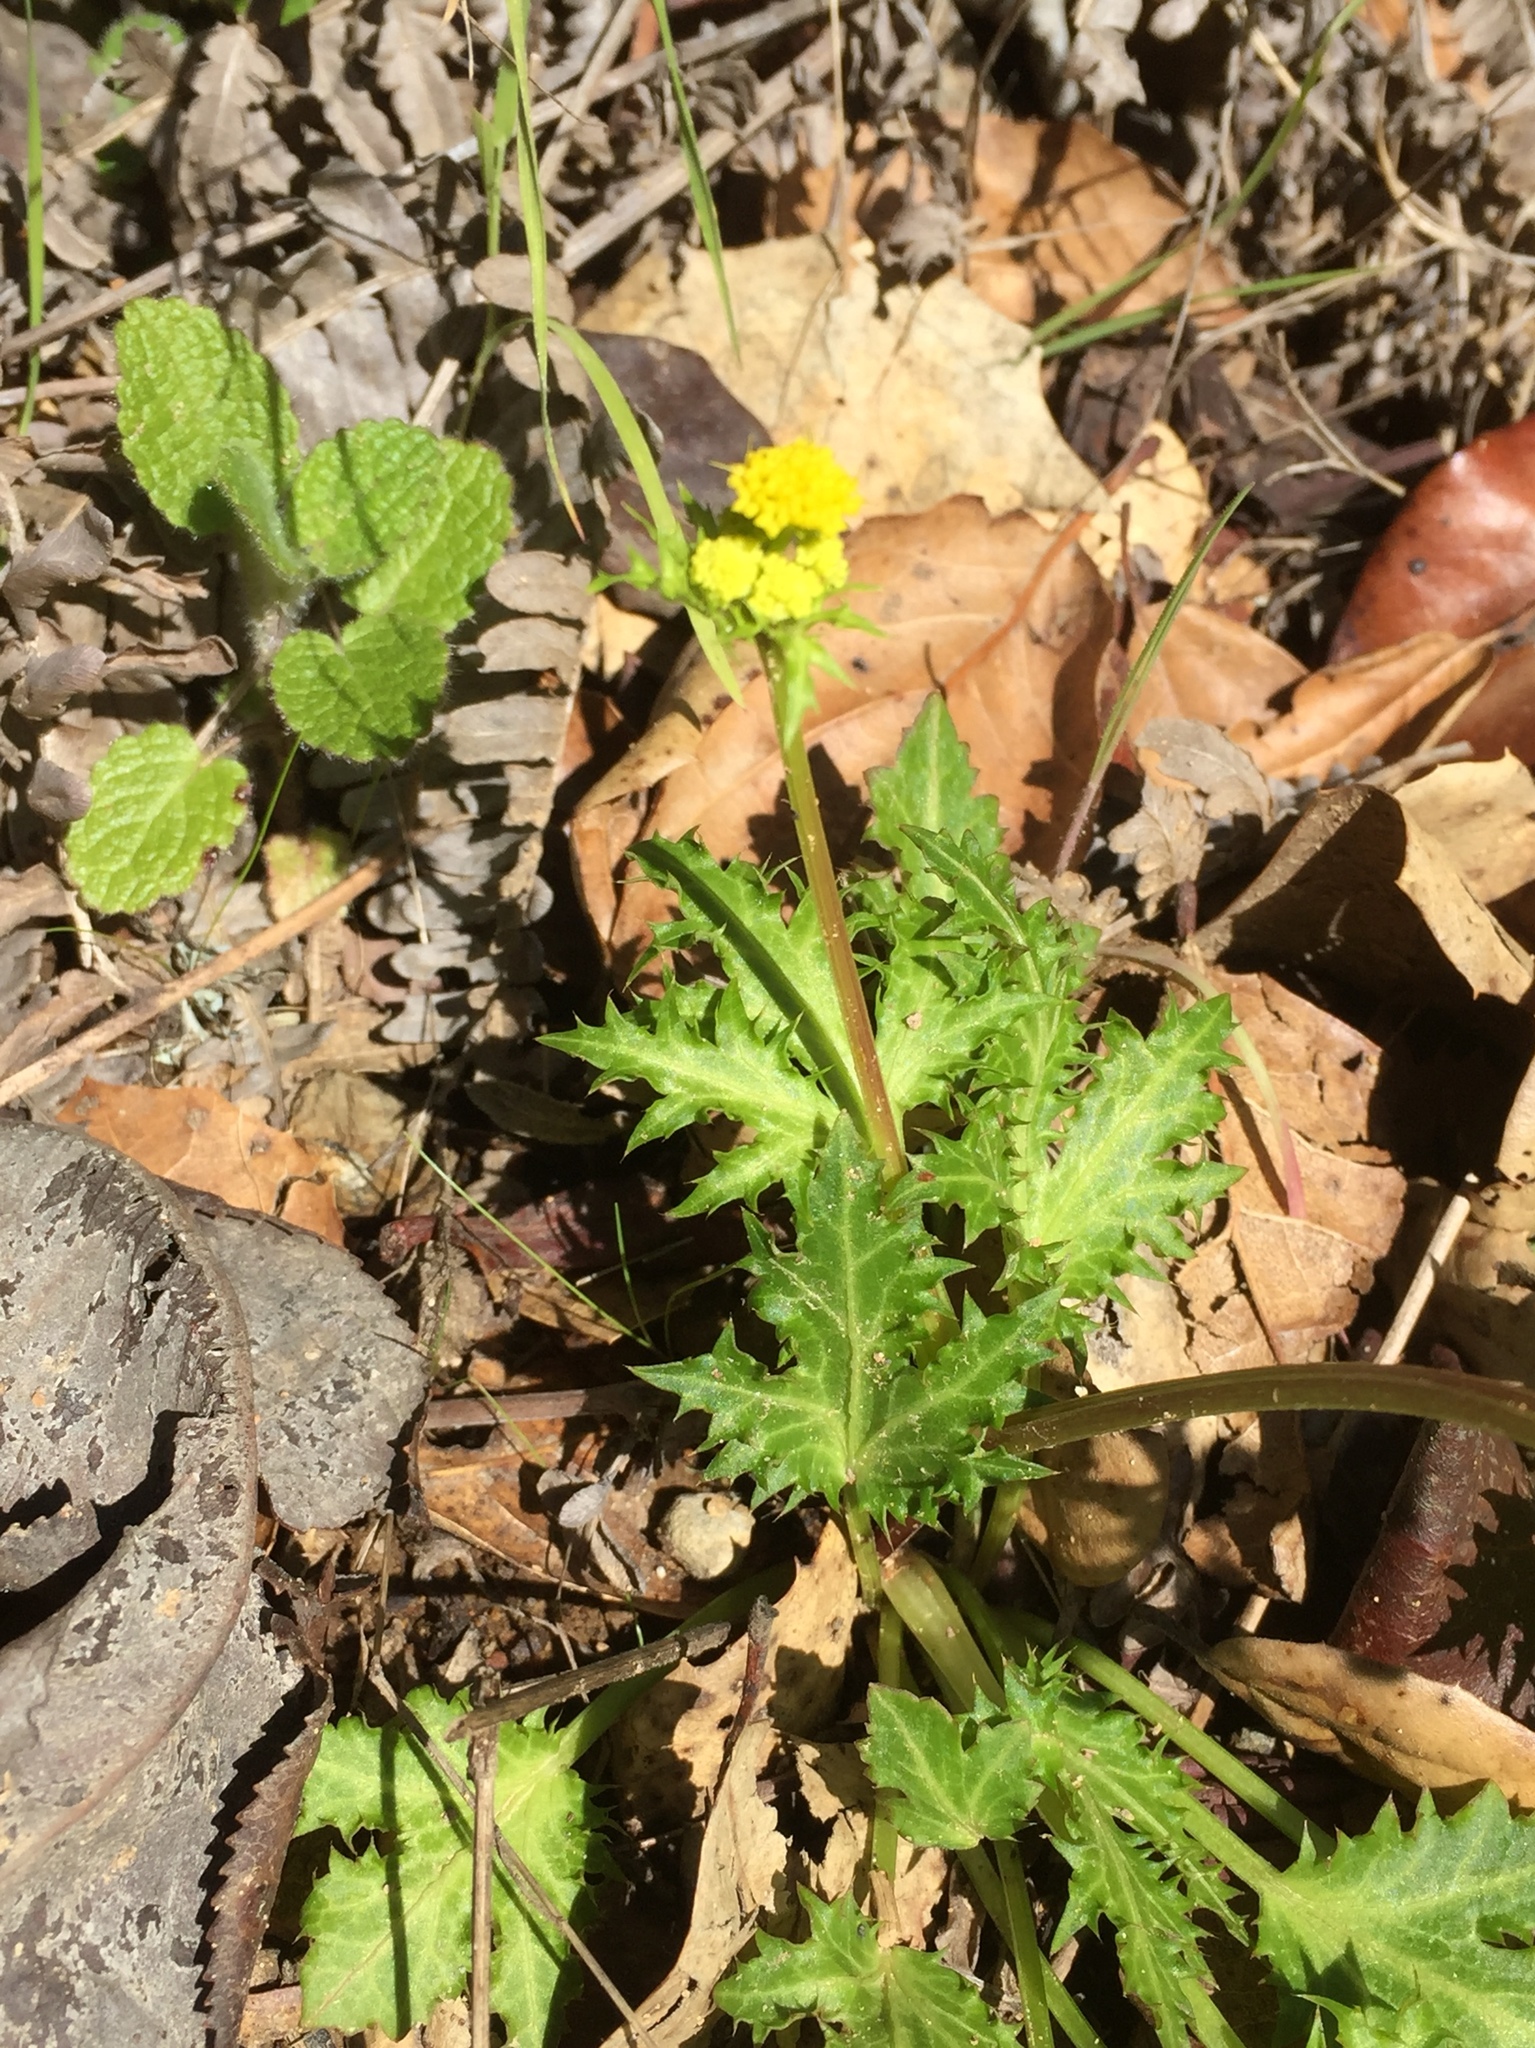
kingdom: Plantae
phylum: Tracheophyta
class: Magnoliopsida
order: Apiales
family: Apiaceae
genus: Sanicula
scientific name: Sanicula laciniata
